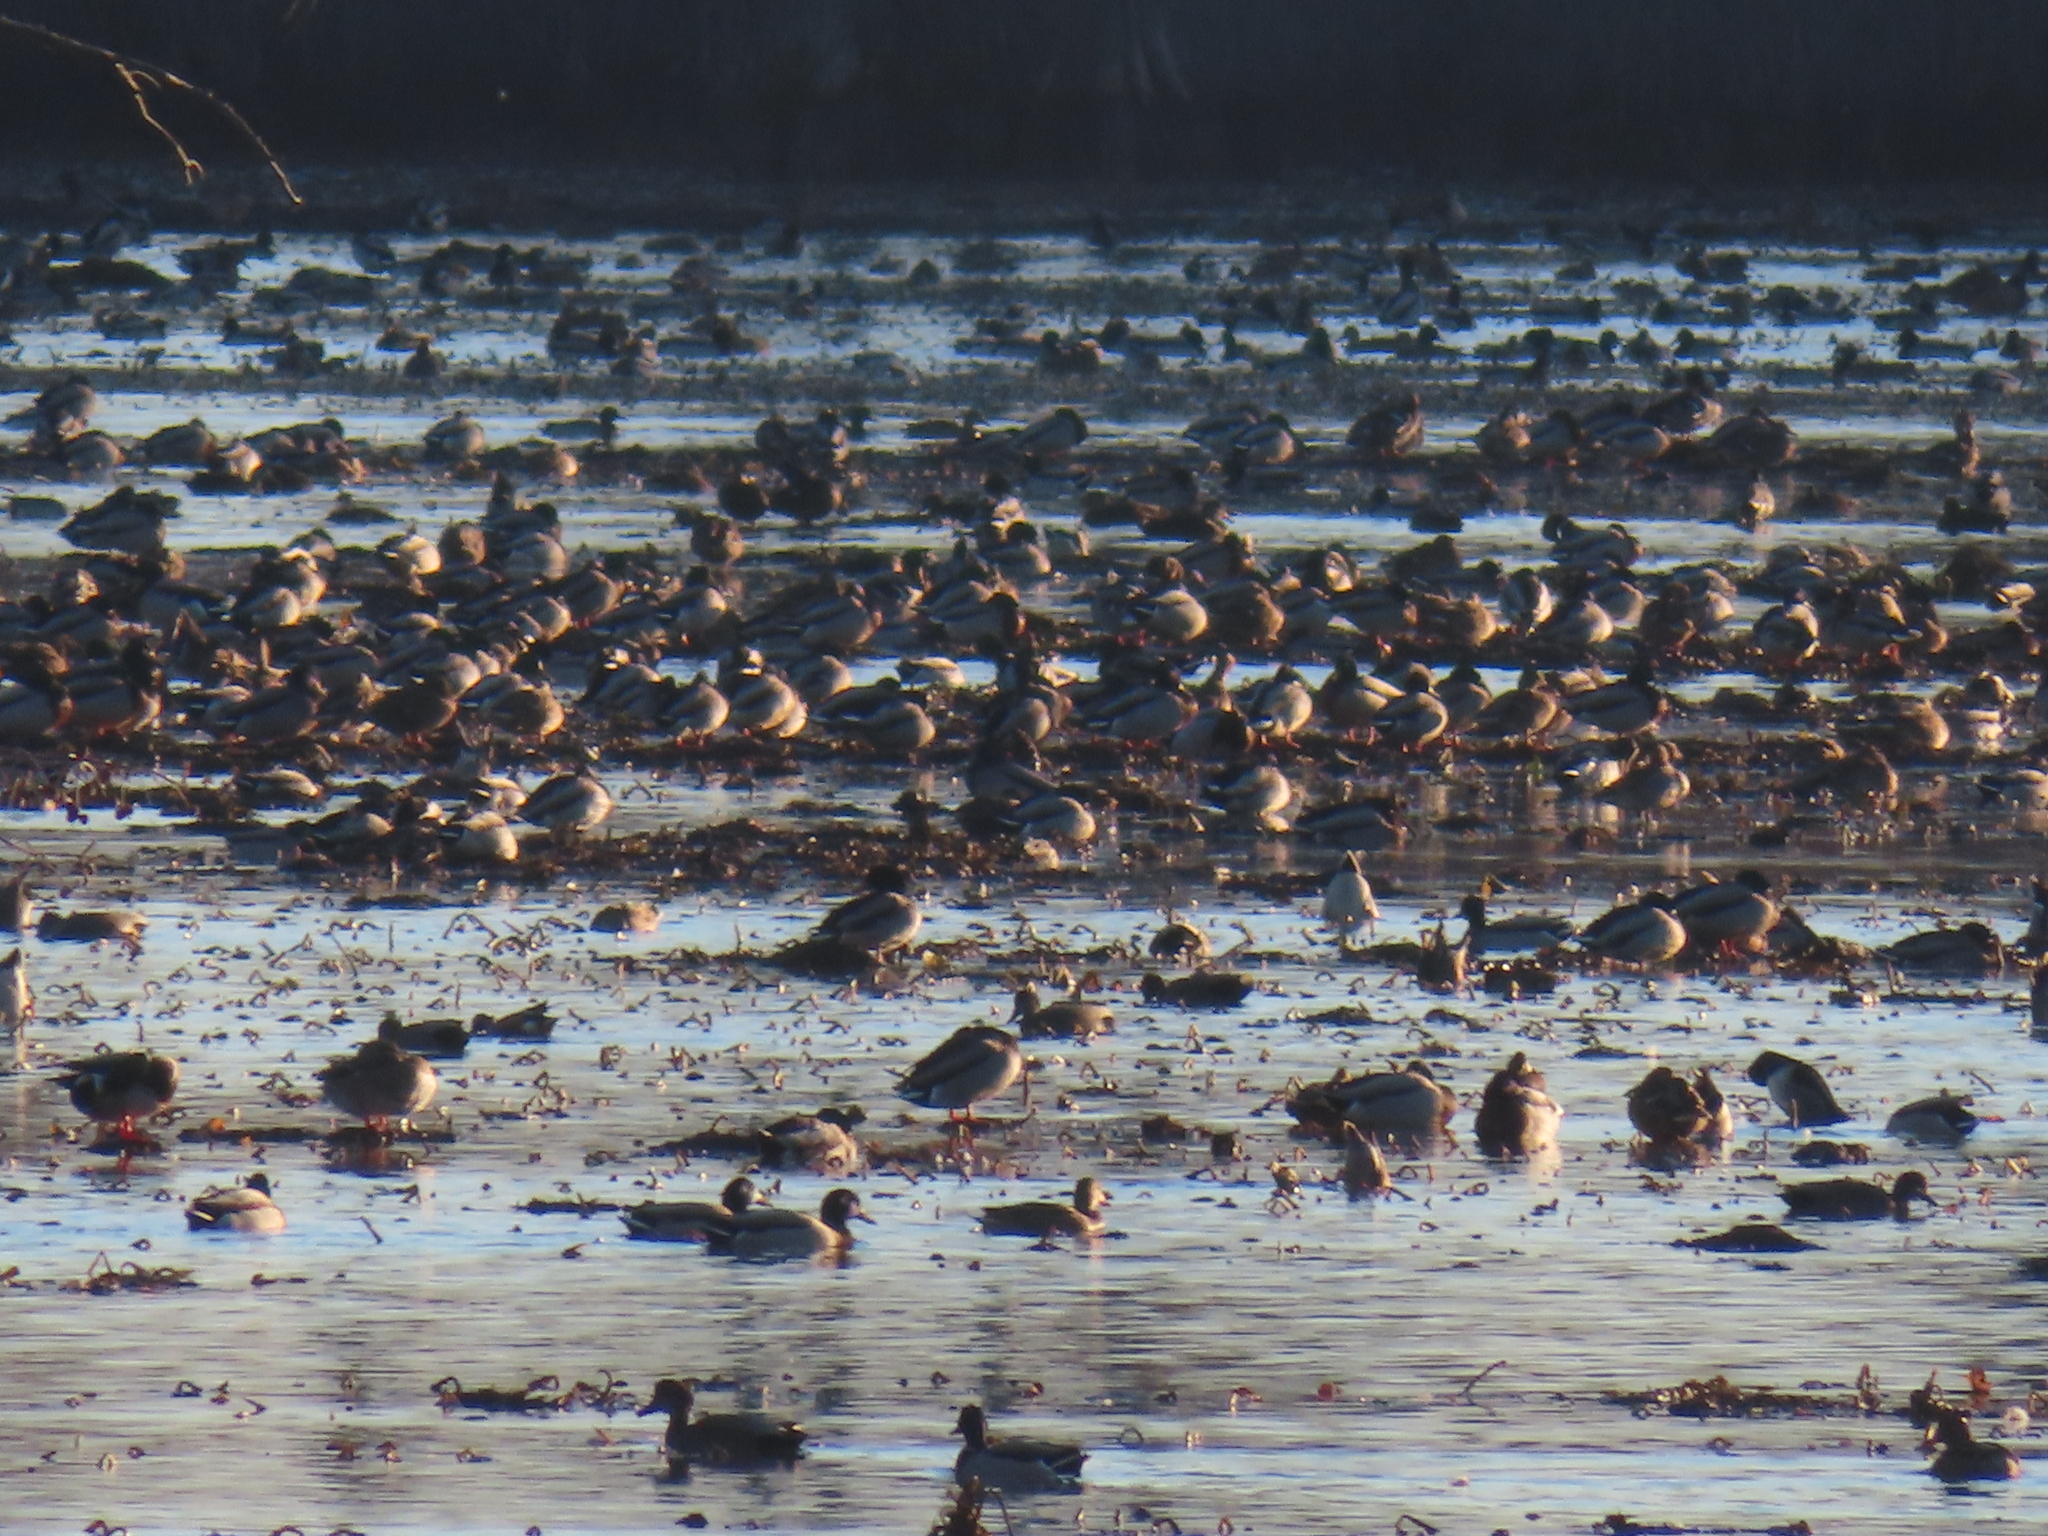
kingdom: Animalia
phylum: Chordata
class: Aves
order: Anseriformes
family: Anatidae
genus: Mareca
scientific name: Mareca strepera
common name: Gadwall
